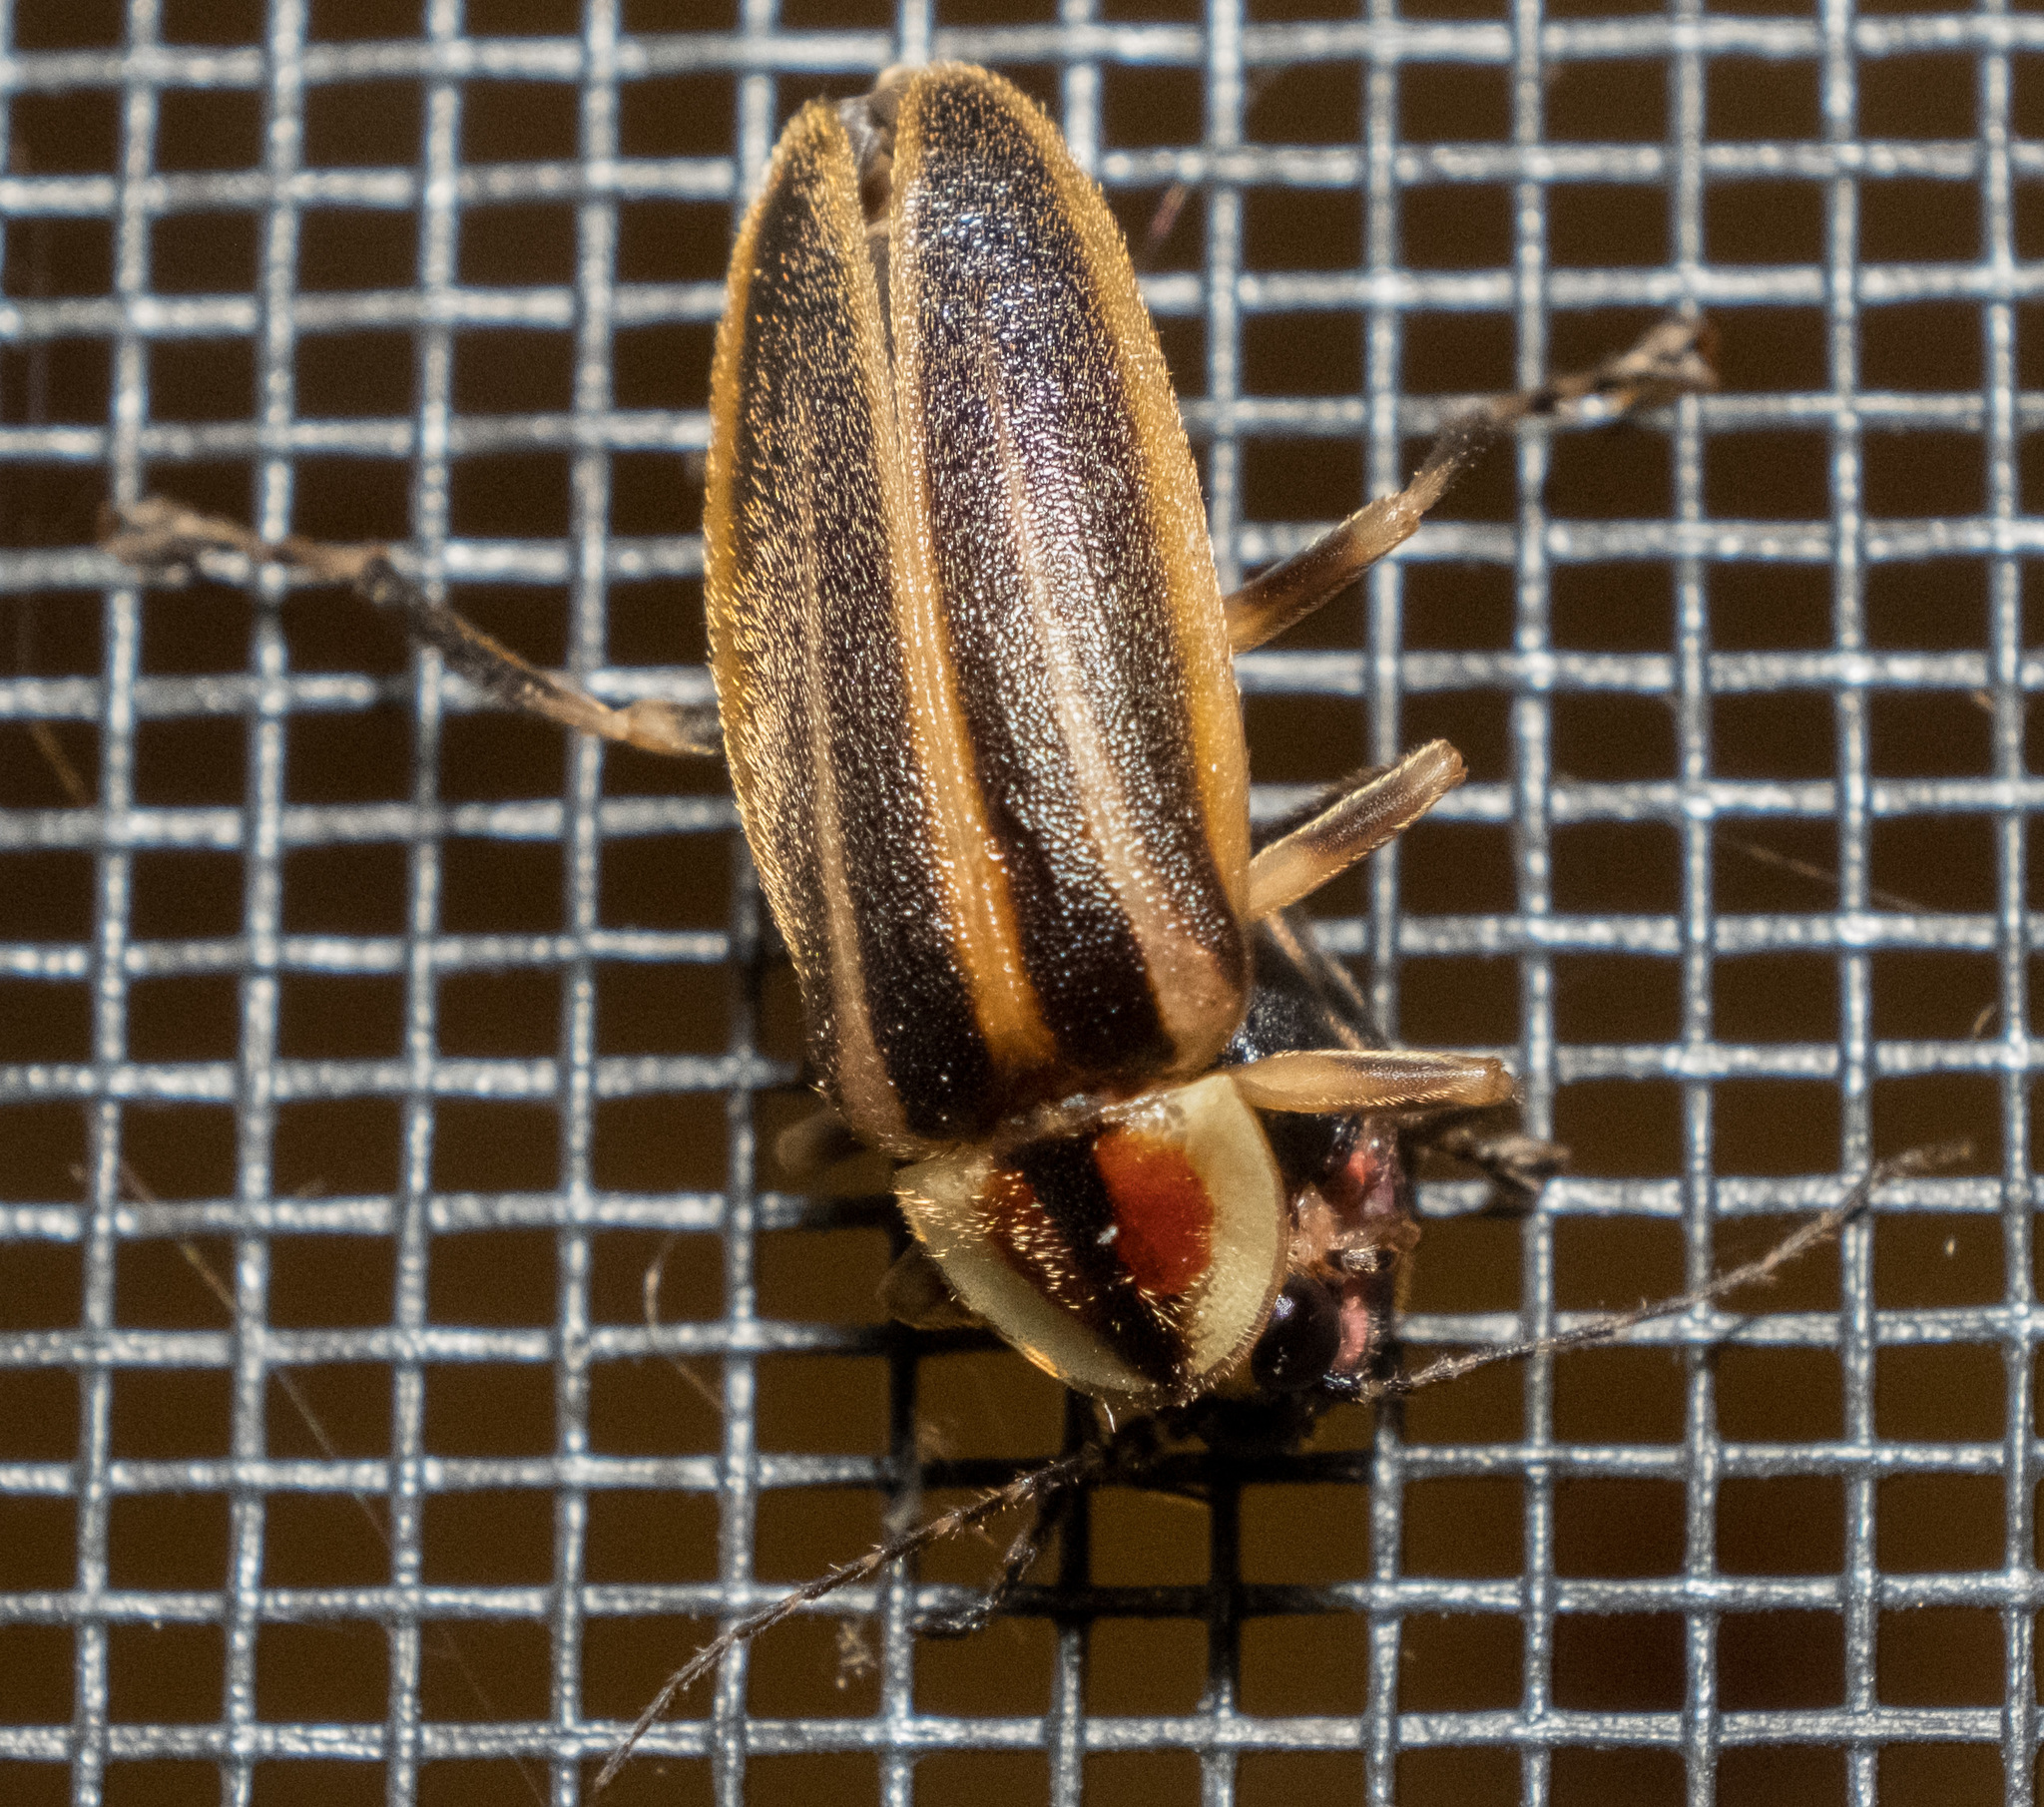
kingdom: Animalia
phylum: Arthropoda
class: Insecta
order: Coleoptera
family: Lampyridae
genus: Photuris
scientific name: Photuris
